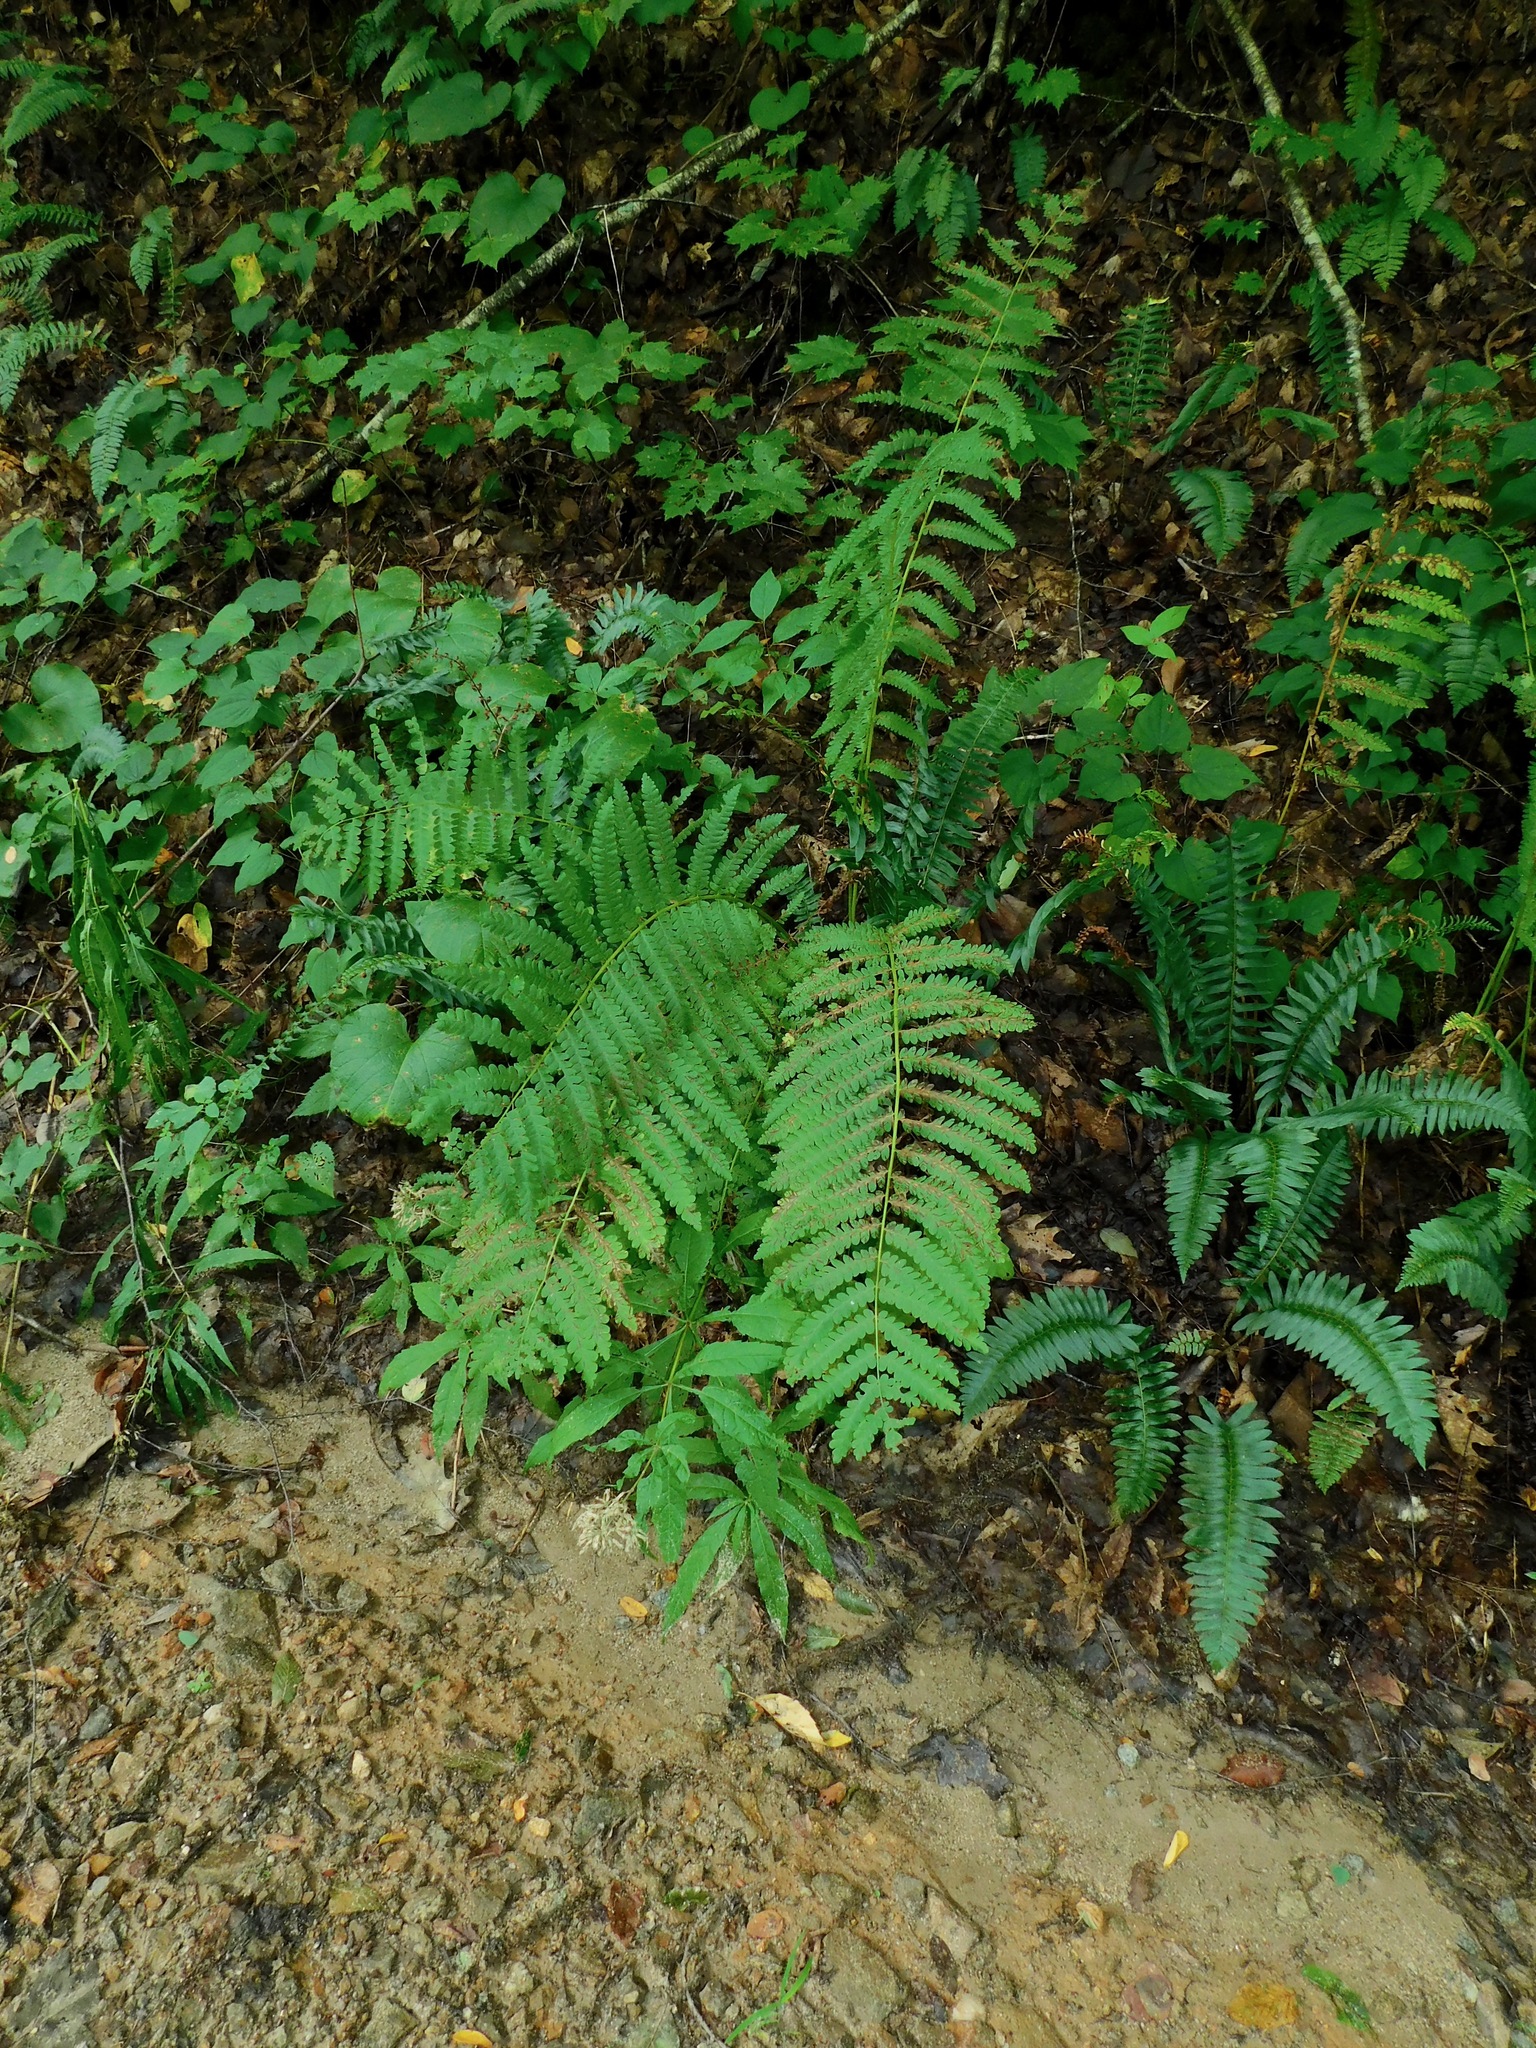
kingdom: Plantae
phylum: Tracheophyta
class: Polypodiopsida
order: Osmundales
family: Osmundaceae
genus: Osmundastrum
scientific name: Osmundastrum cinnamomeum
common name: Cinnamon fern
